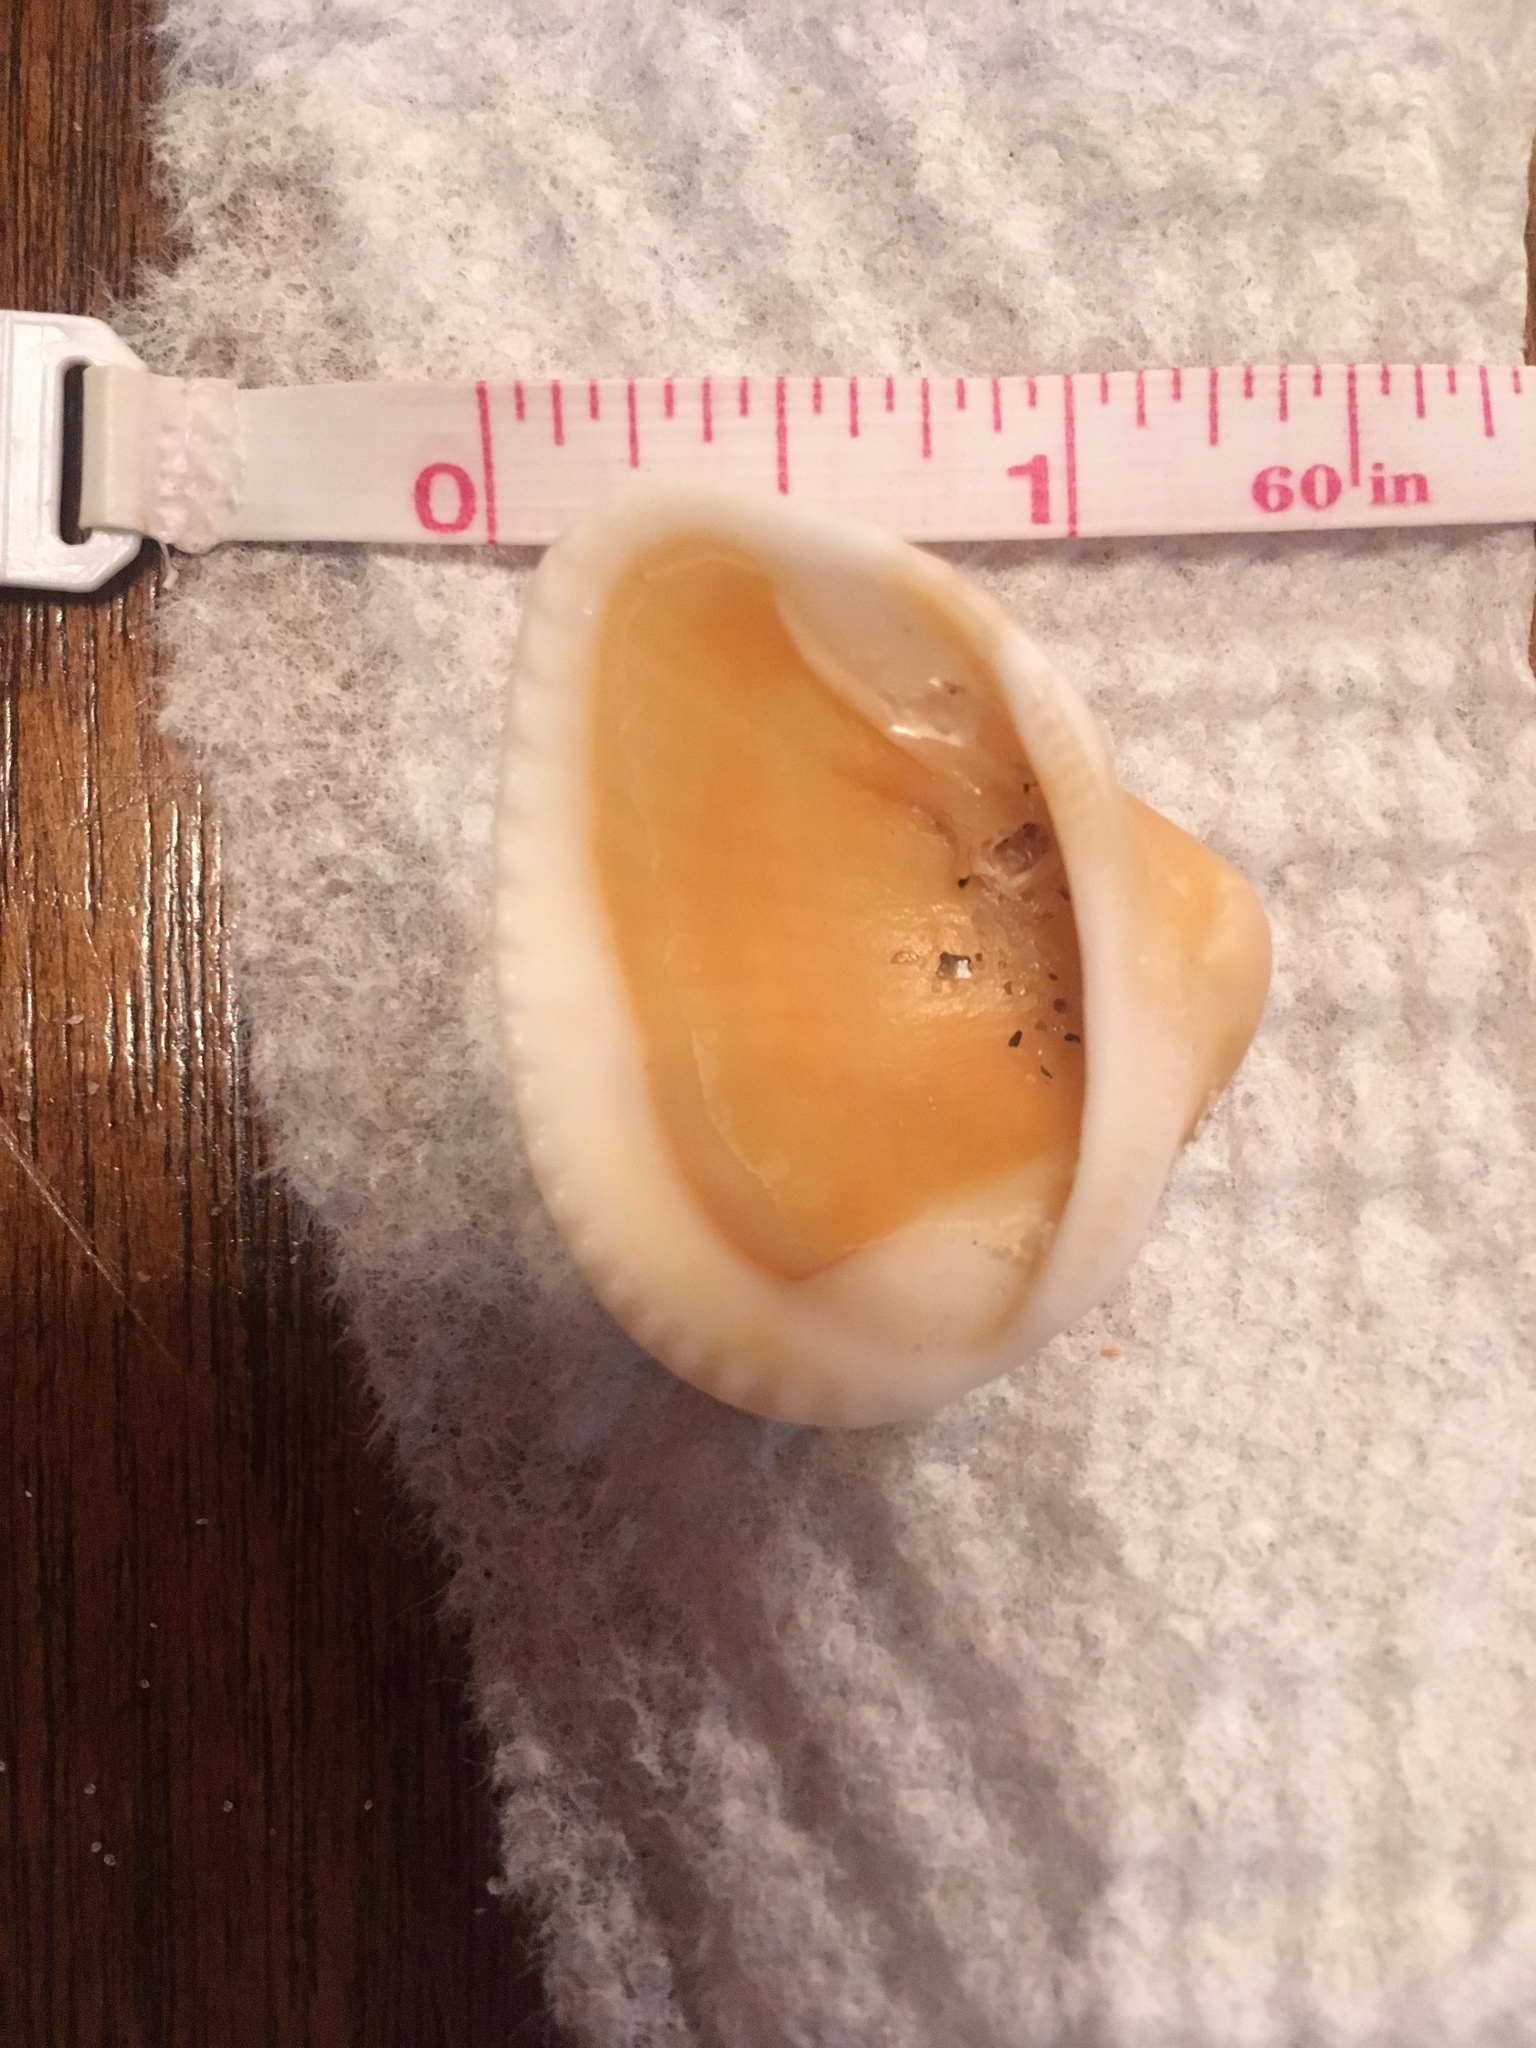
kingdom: Animalia
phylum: Mollusca
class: Bivalvia
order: Arcida
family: Noetiidae
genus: Noetia
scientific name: Noetia ponderosa
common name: Ponderous ark
